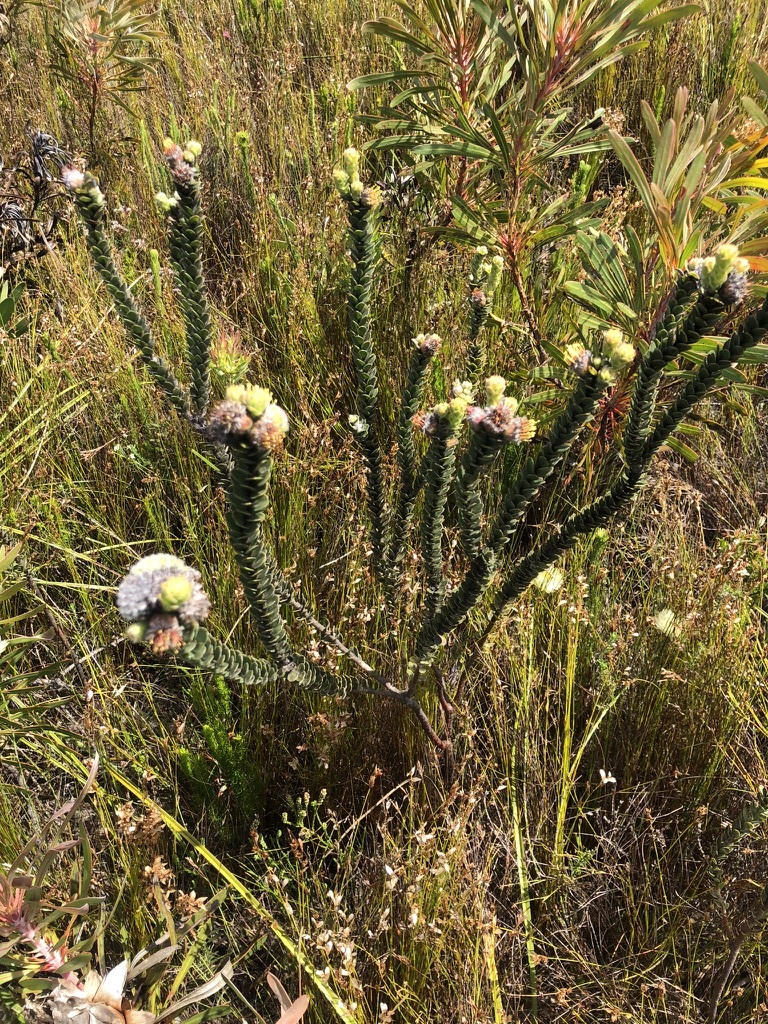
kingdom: Plantae
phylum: Tracheophyta
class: Magnoliopsida
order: Proteales
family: Proteaceae
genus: Leucospermum
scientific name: Leucospermum truncatulum
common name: Oval-leaf pincushion
